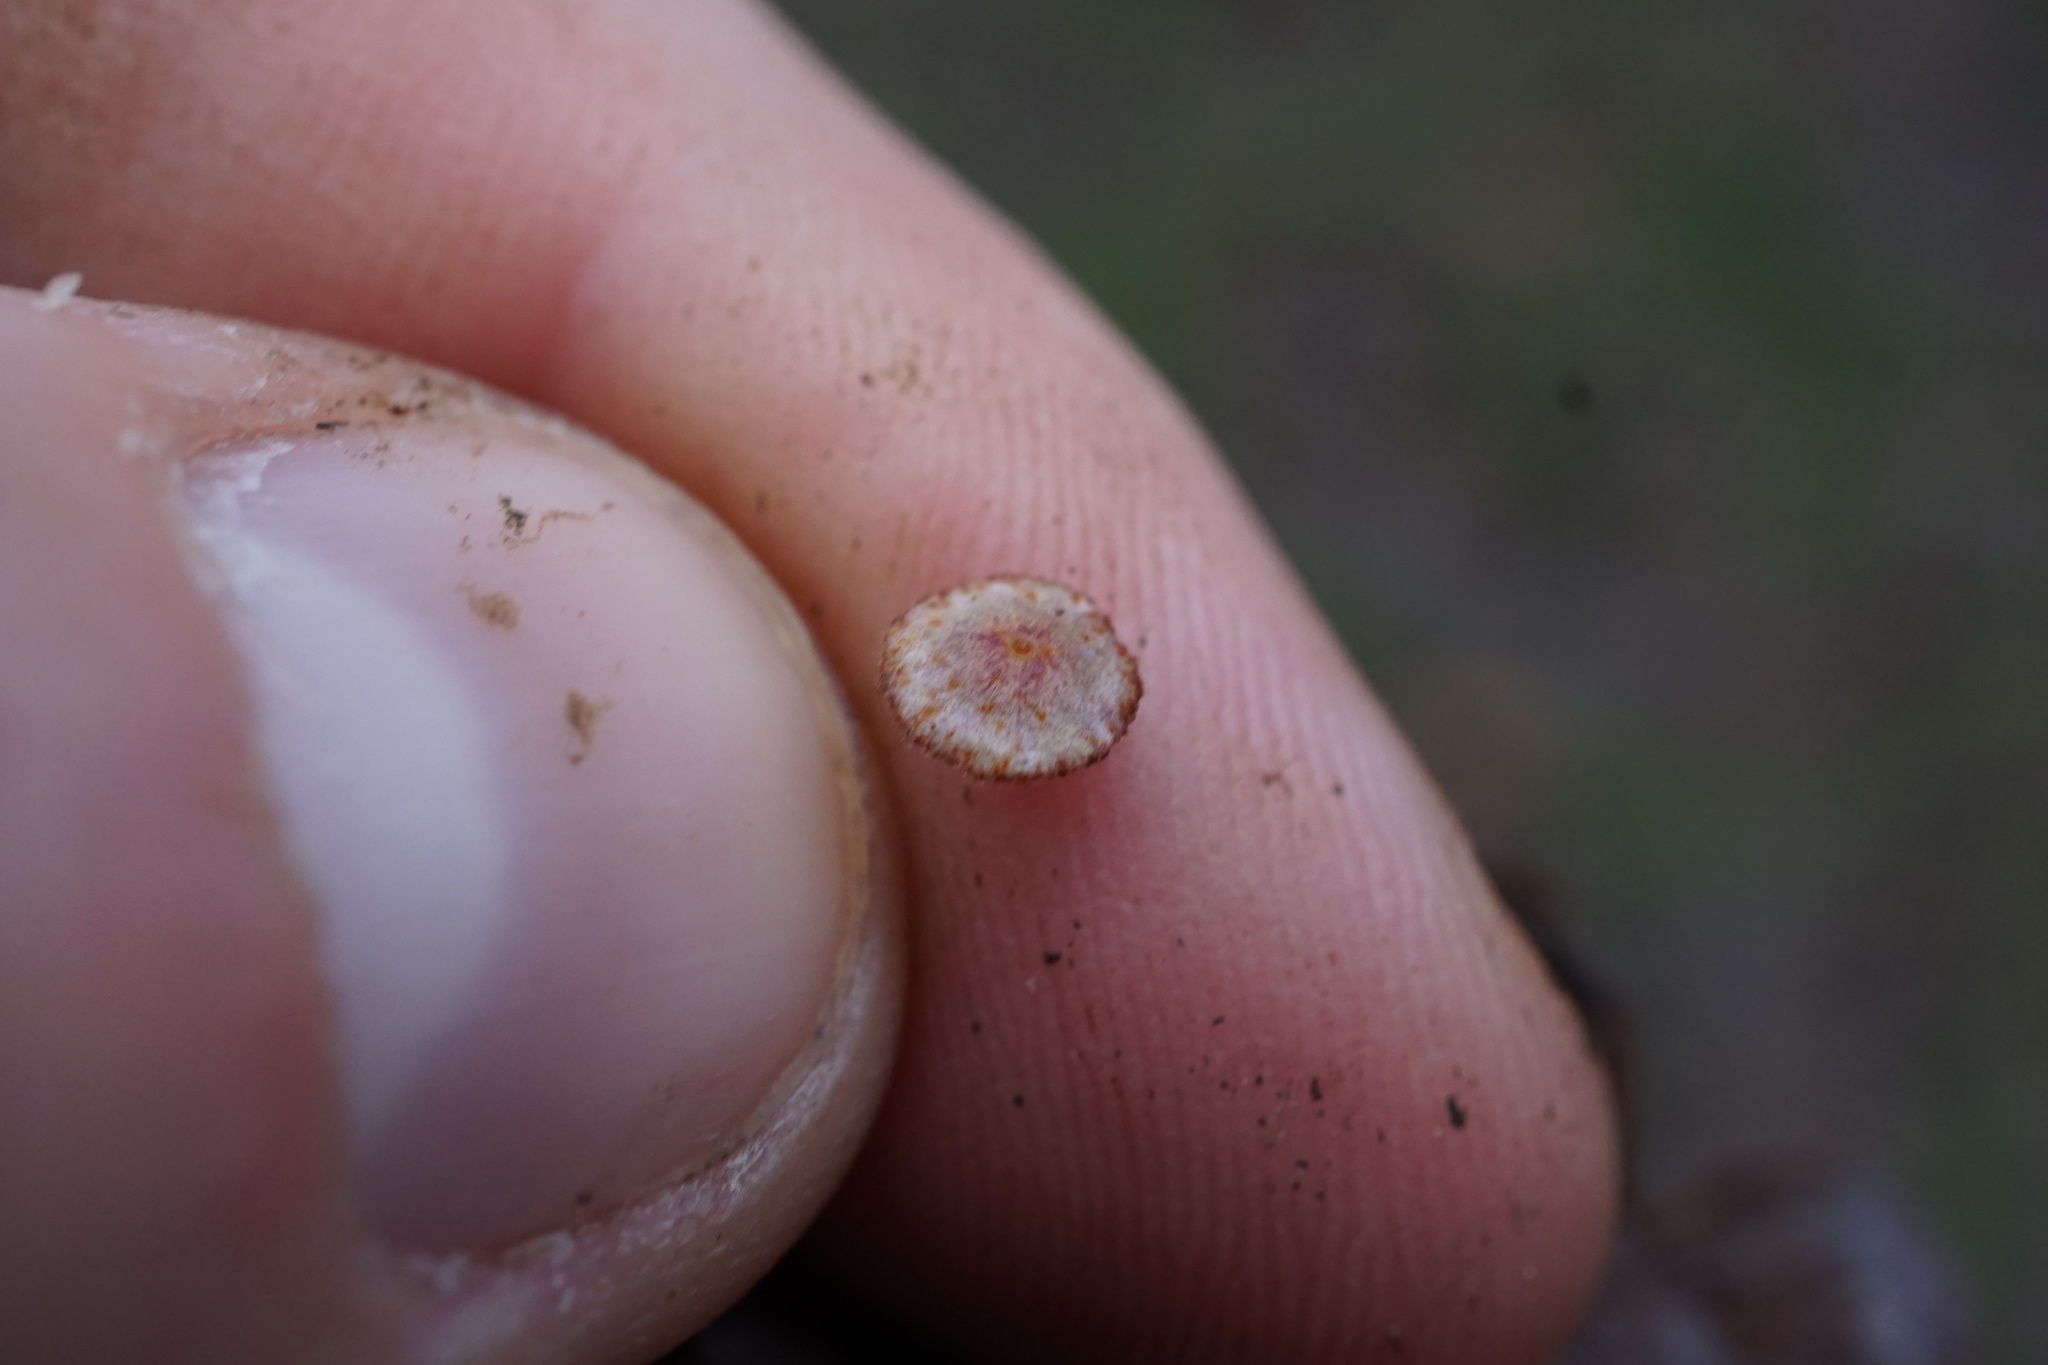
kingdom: Animalia
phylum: Arthropoda
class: Insecta
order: Hymenoptera
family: Cynipidae
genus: Neuroterus
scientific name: Neuroterus quercusbaccarum
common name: Common spangle gall
